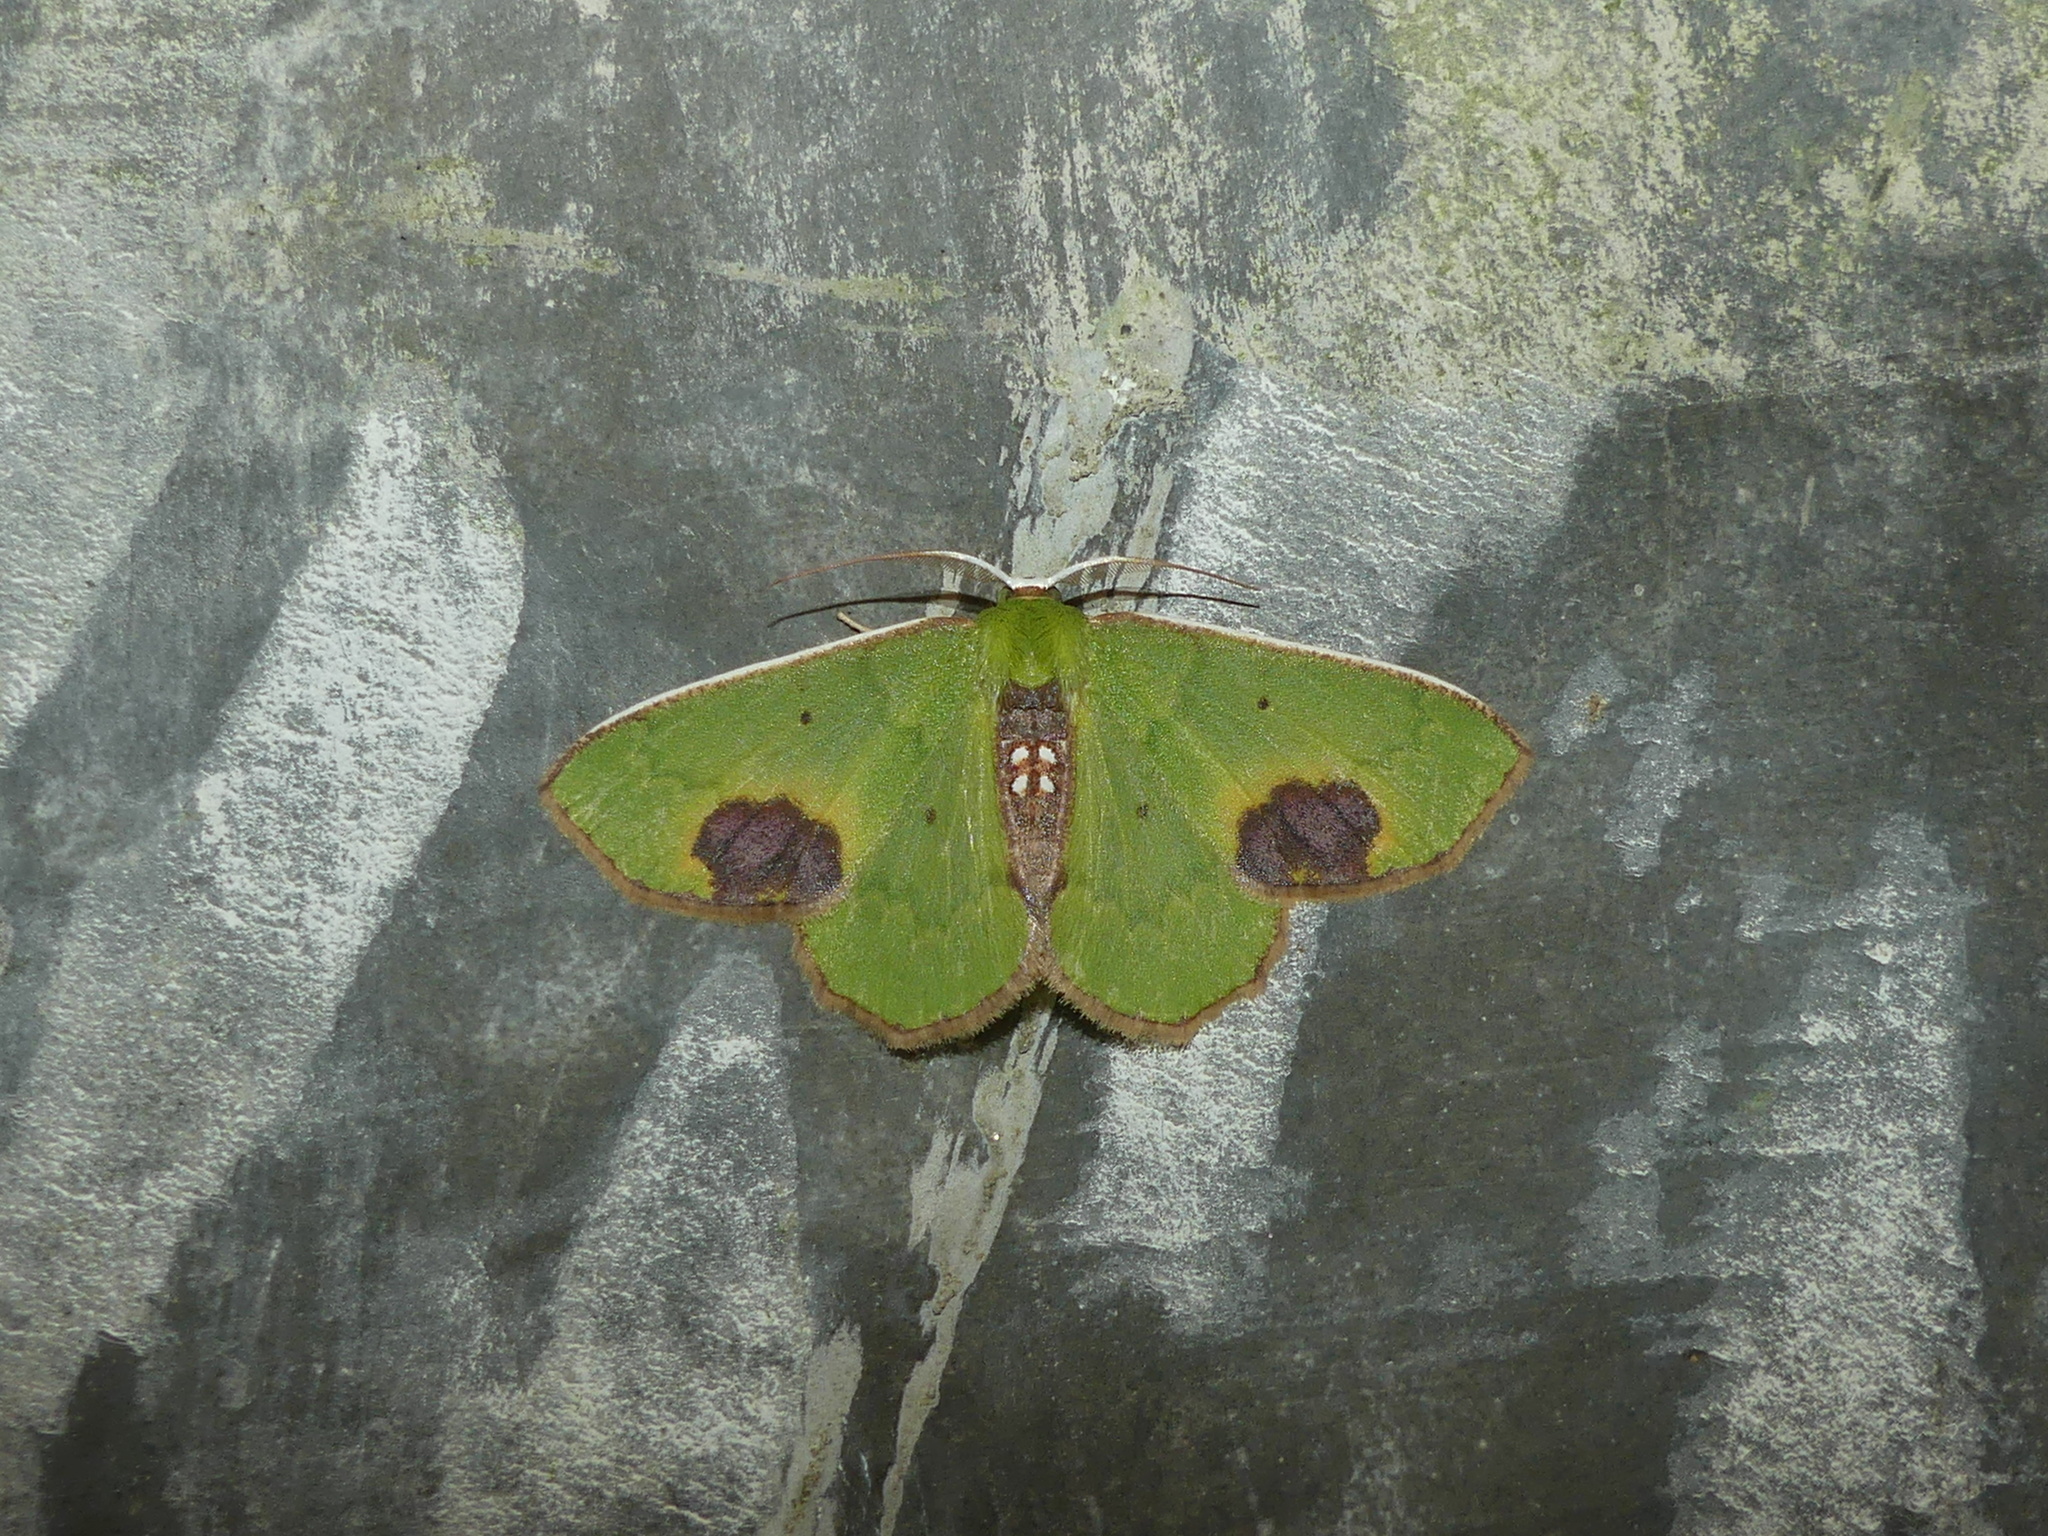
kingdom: Animalia
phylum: Arthropoda
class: Insecta
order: Lepidoptera
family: Geometridae
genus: Spaniocentra
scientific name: Spaniocentra megaspilaria
